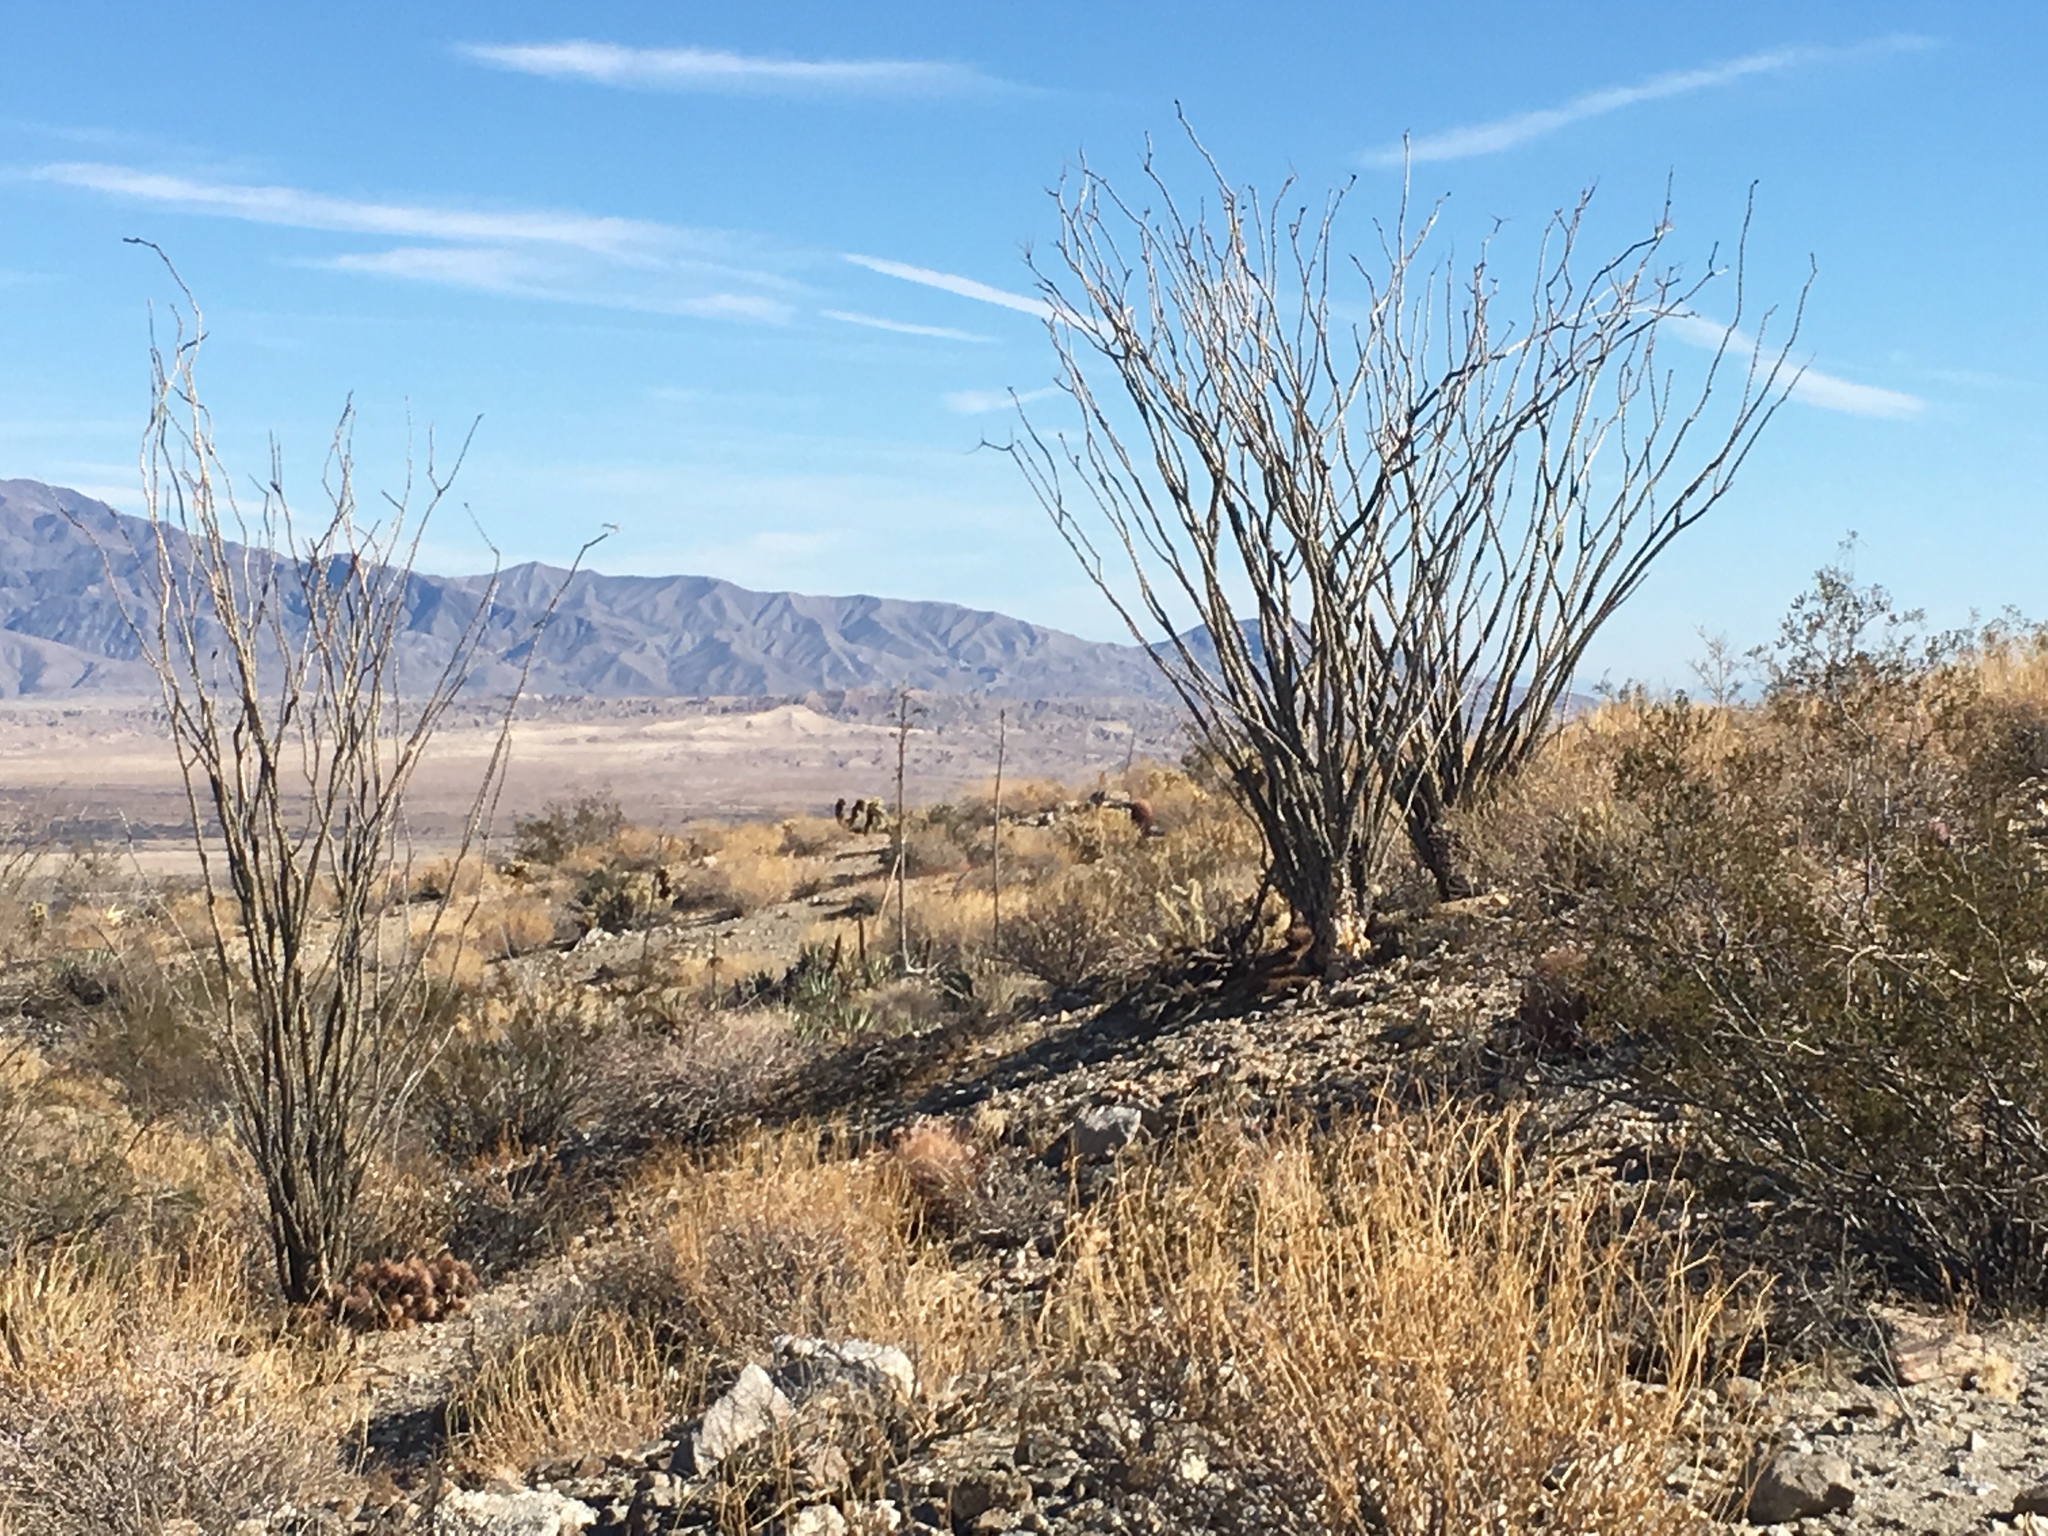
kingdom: Plantae
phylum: Tracheophyta
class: Magnoliopsida
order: Ericales
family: Fouquieriaceae
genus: Fouquieria
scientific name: Fouquieria splendens
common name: Vine-cactus
